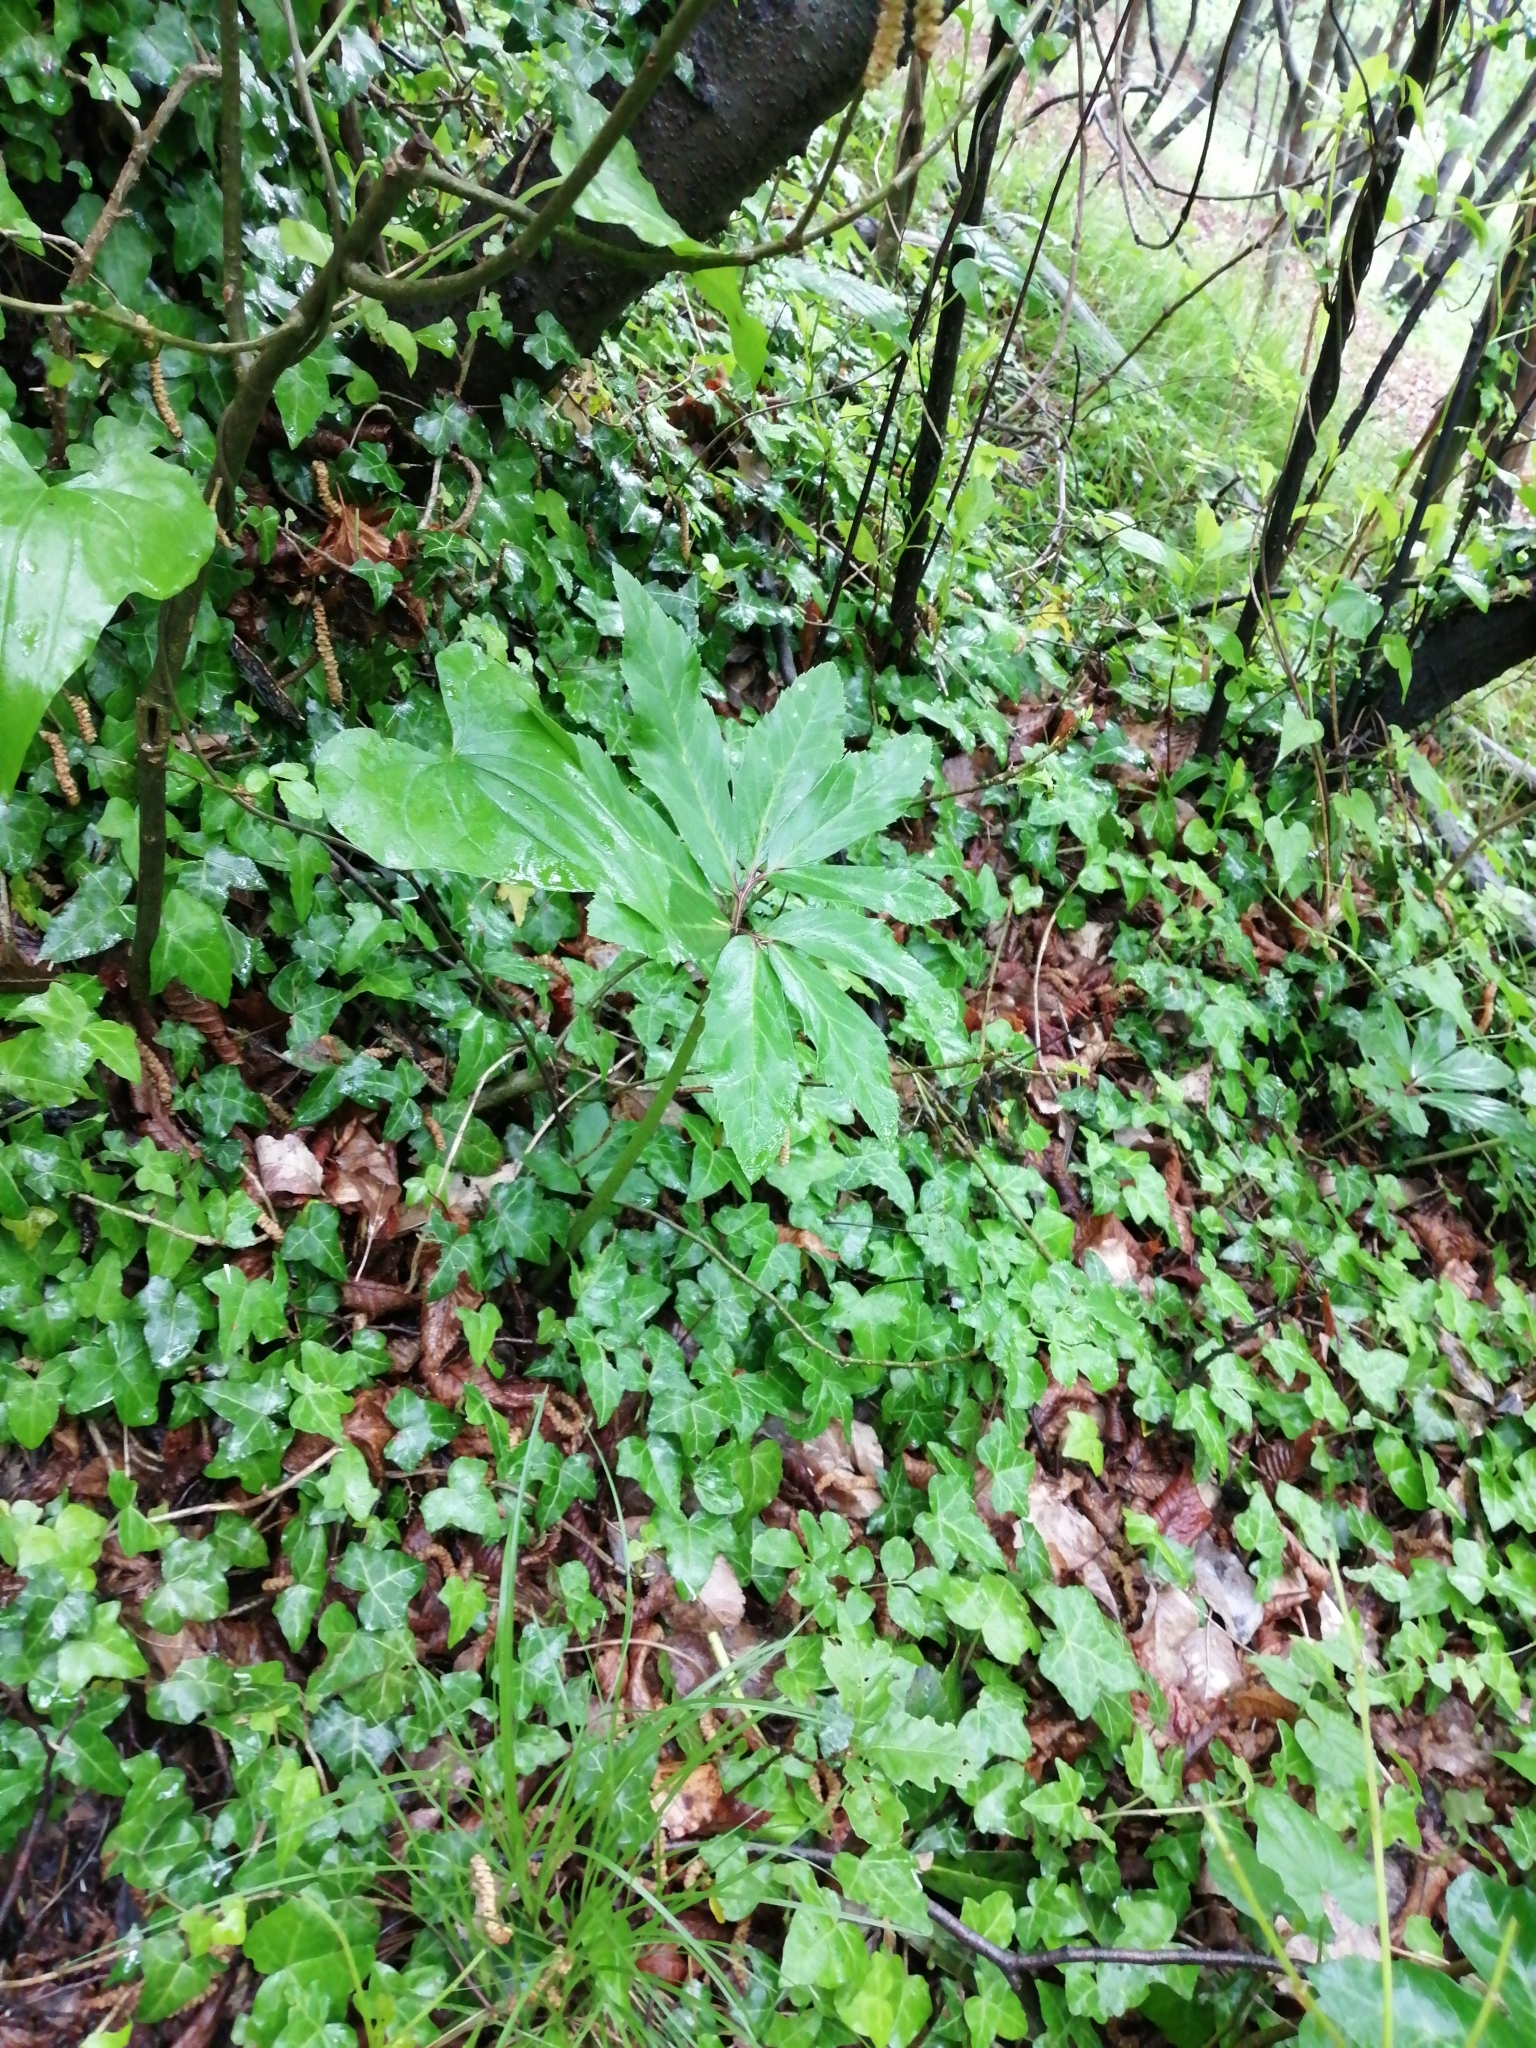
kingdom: Plantae
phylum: Tracheophyta
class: Magnoliopsida
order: Ranunculales
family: Ranunculaceae
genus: Helleborus
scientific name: Helleborus niger
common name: Black hellebore
